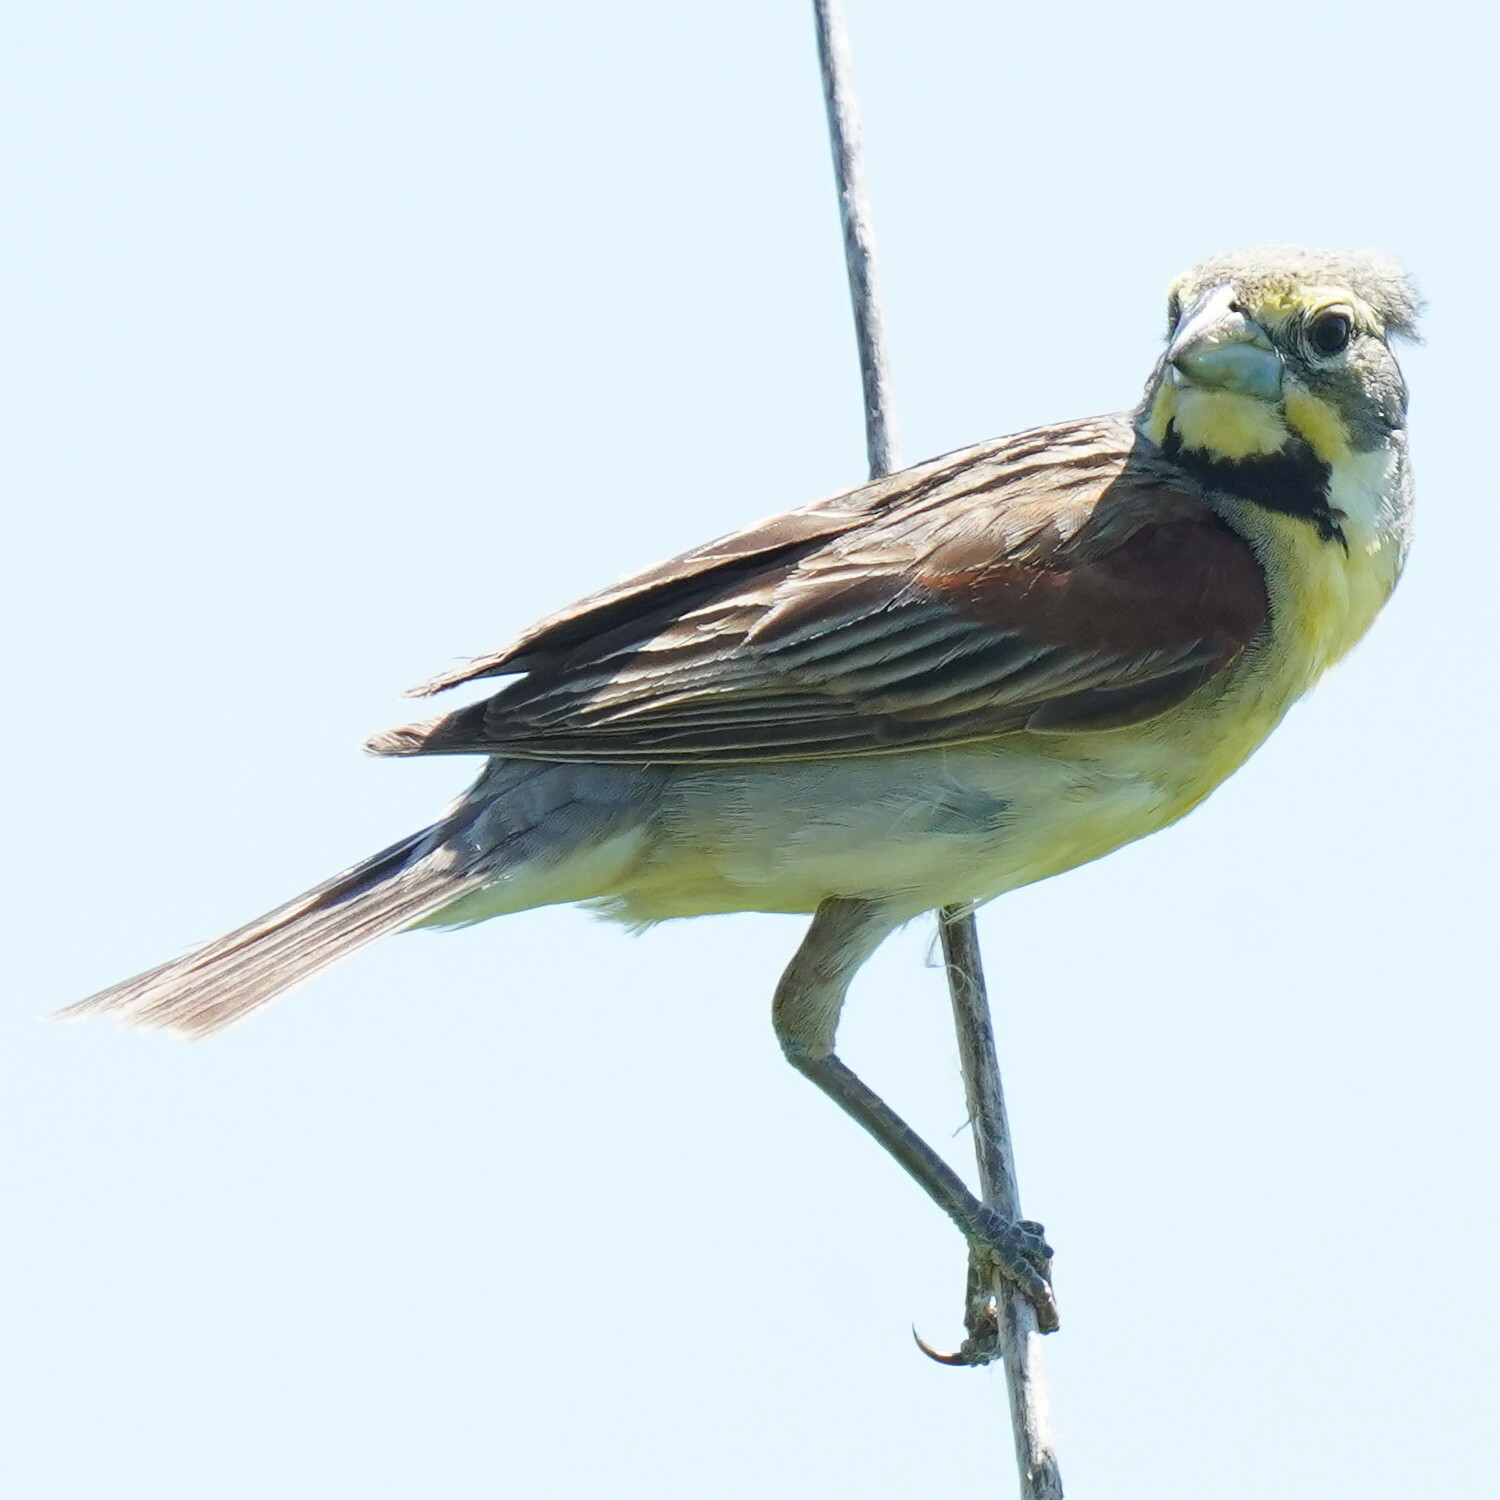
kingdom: Animalia
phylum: Chordata
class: Aves
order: Passeriformes
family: Cardinalidae
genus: Spiza
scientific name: Spiza americana
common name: Dickcissel
